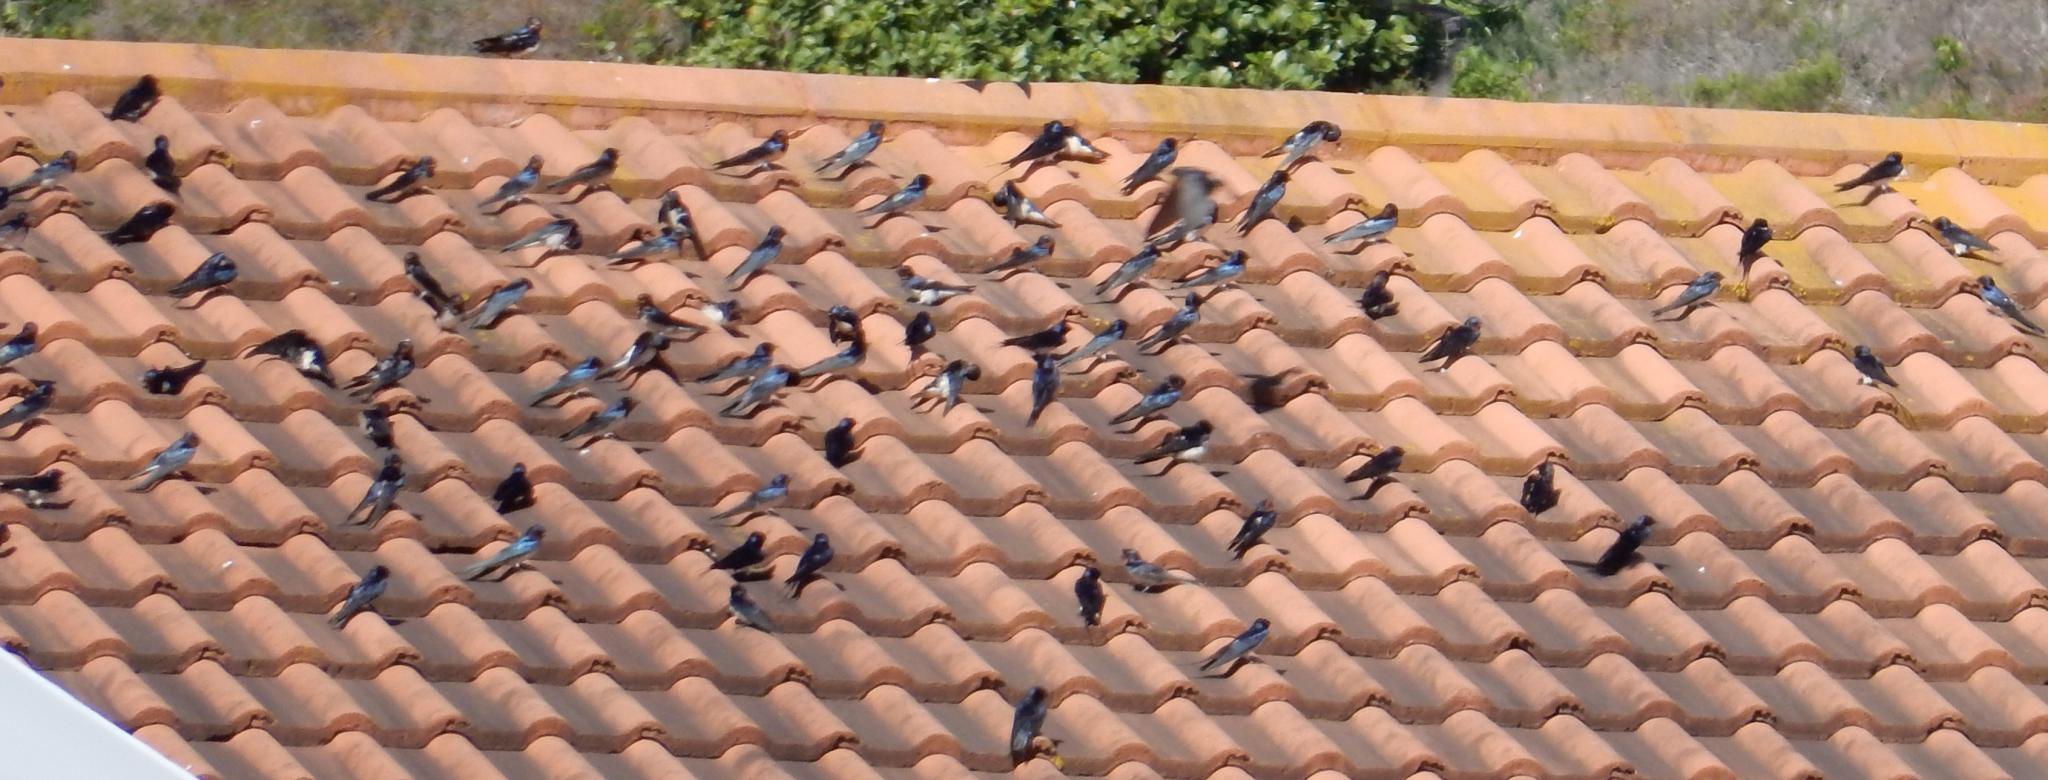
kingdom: Animalia
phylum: Chordata
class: Aves
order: Passeriformes
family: Hirundinidae
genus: Hirundo
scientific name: Hirundo rustica
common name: Barn swallow
